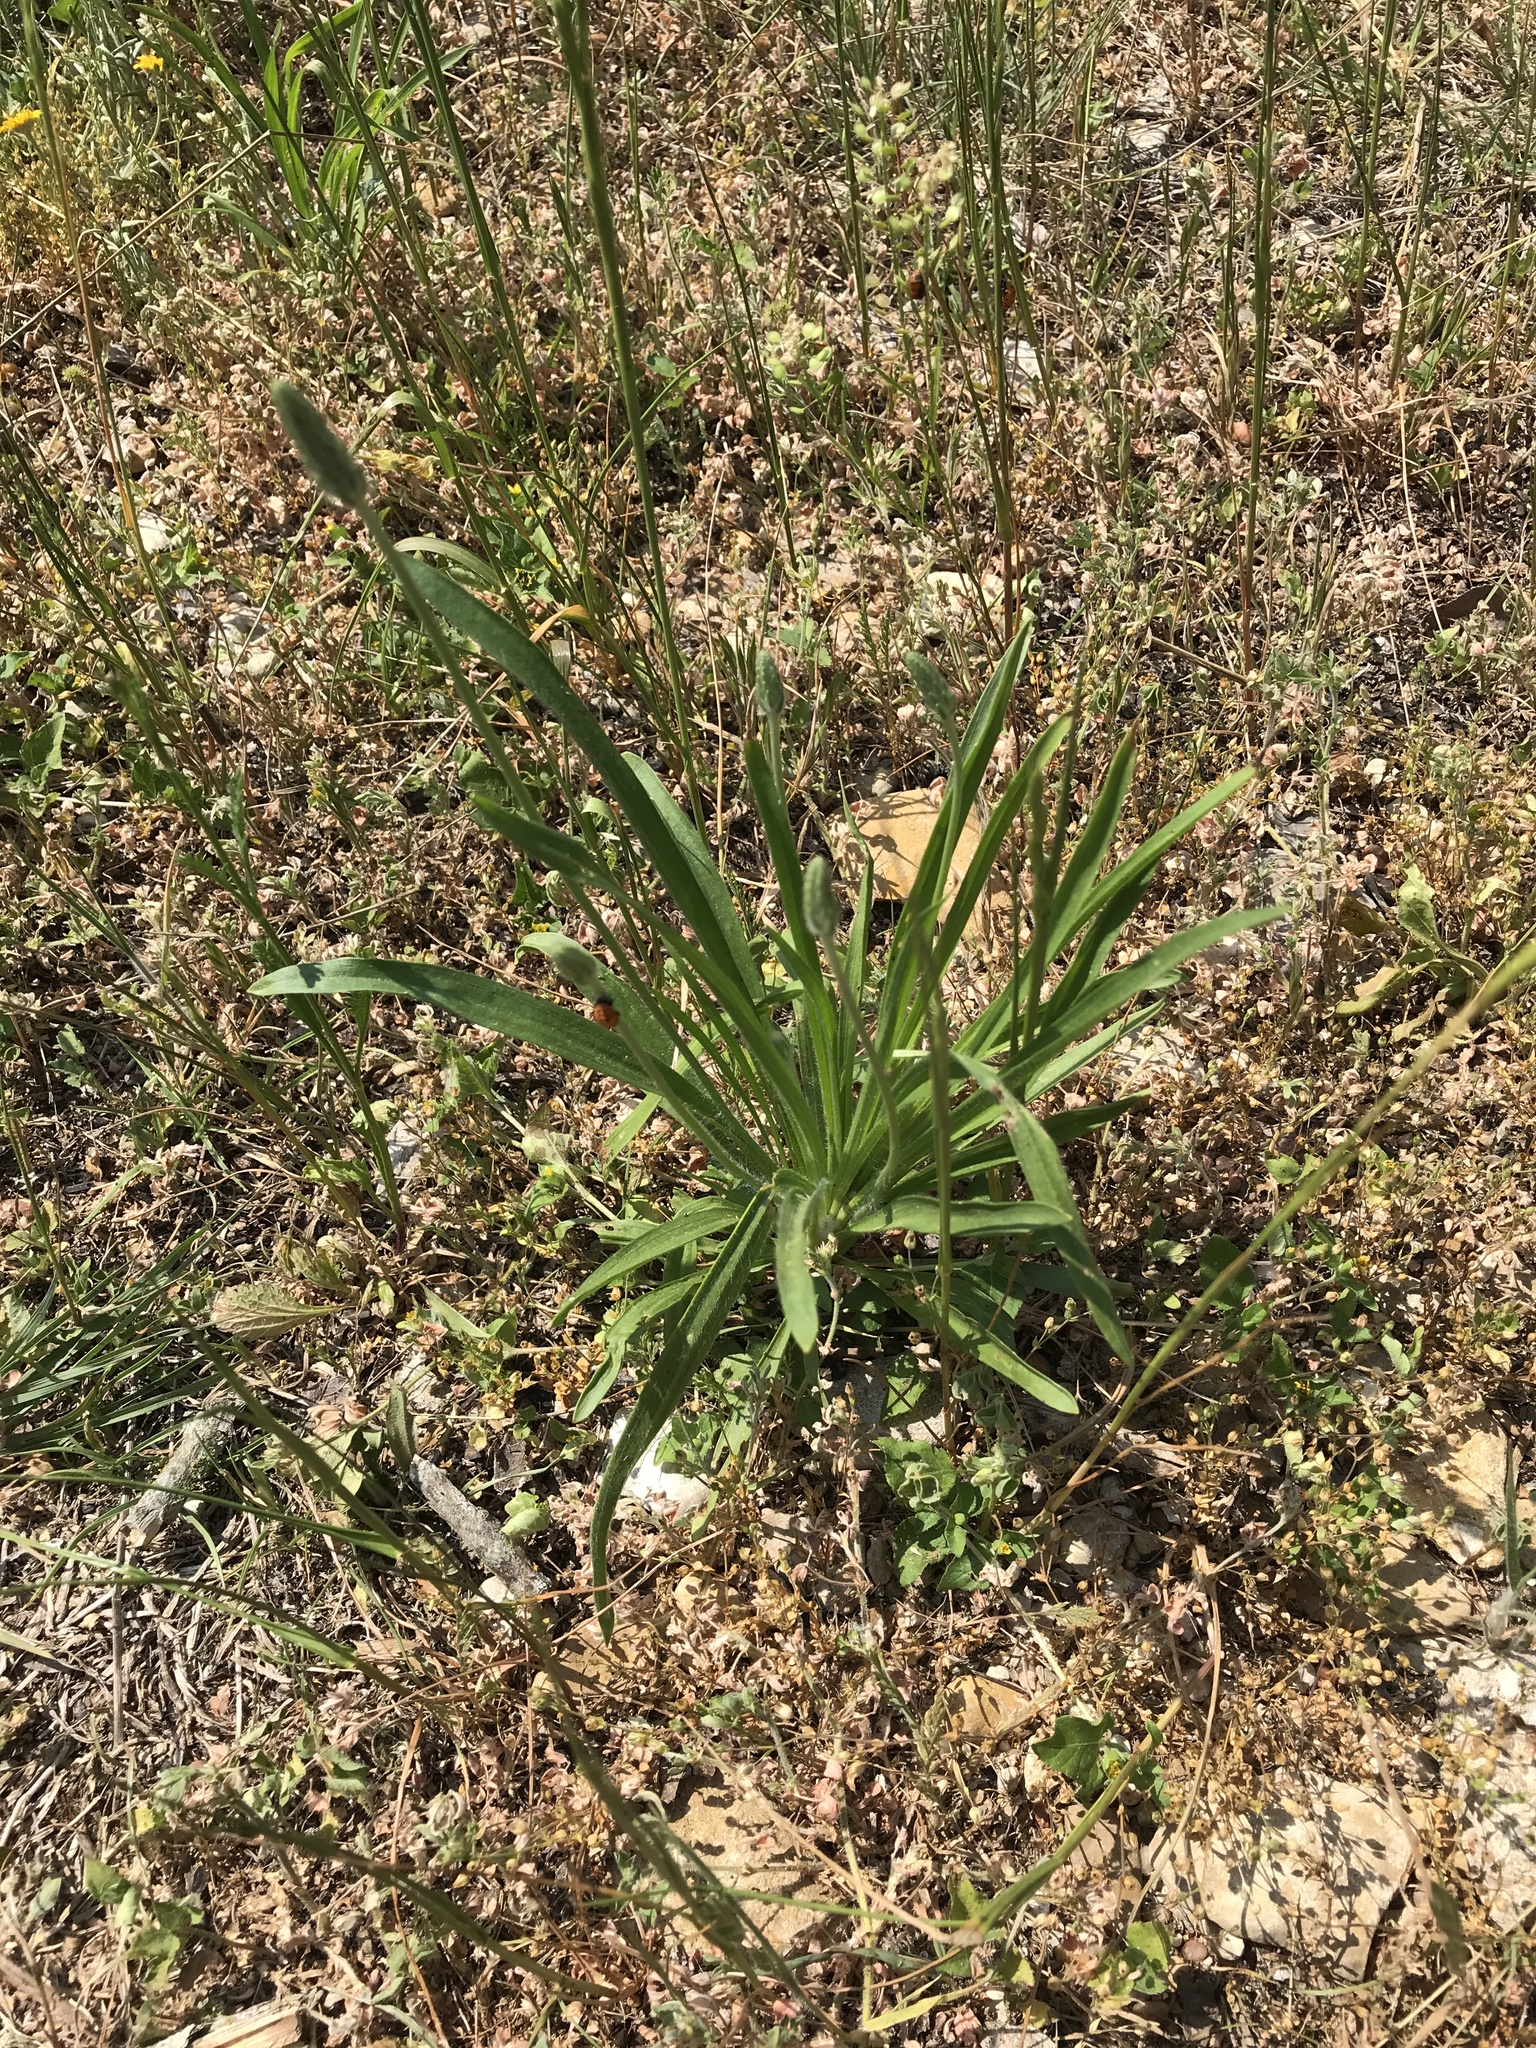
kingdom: Plantae
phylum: Tracheophyta
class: Magnoliopsida
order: Lamiales
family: Plantaginaceae
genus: Plantago
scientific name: Plantago wrightiana
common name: Wright's plantain
